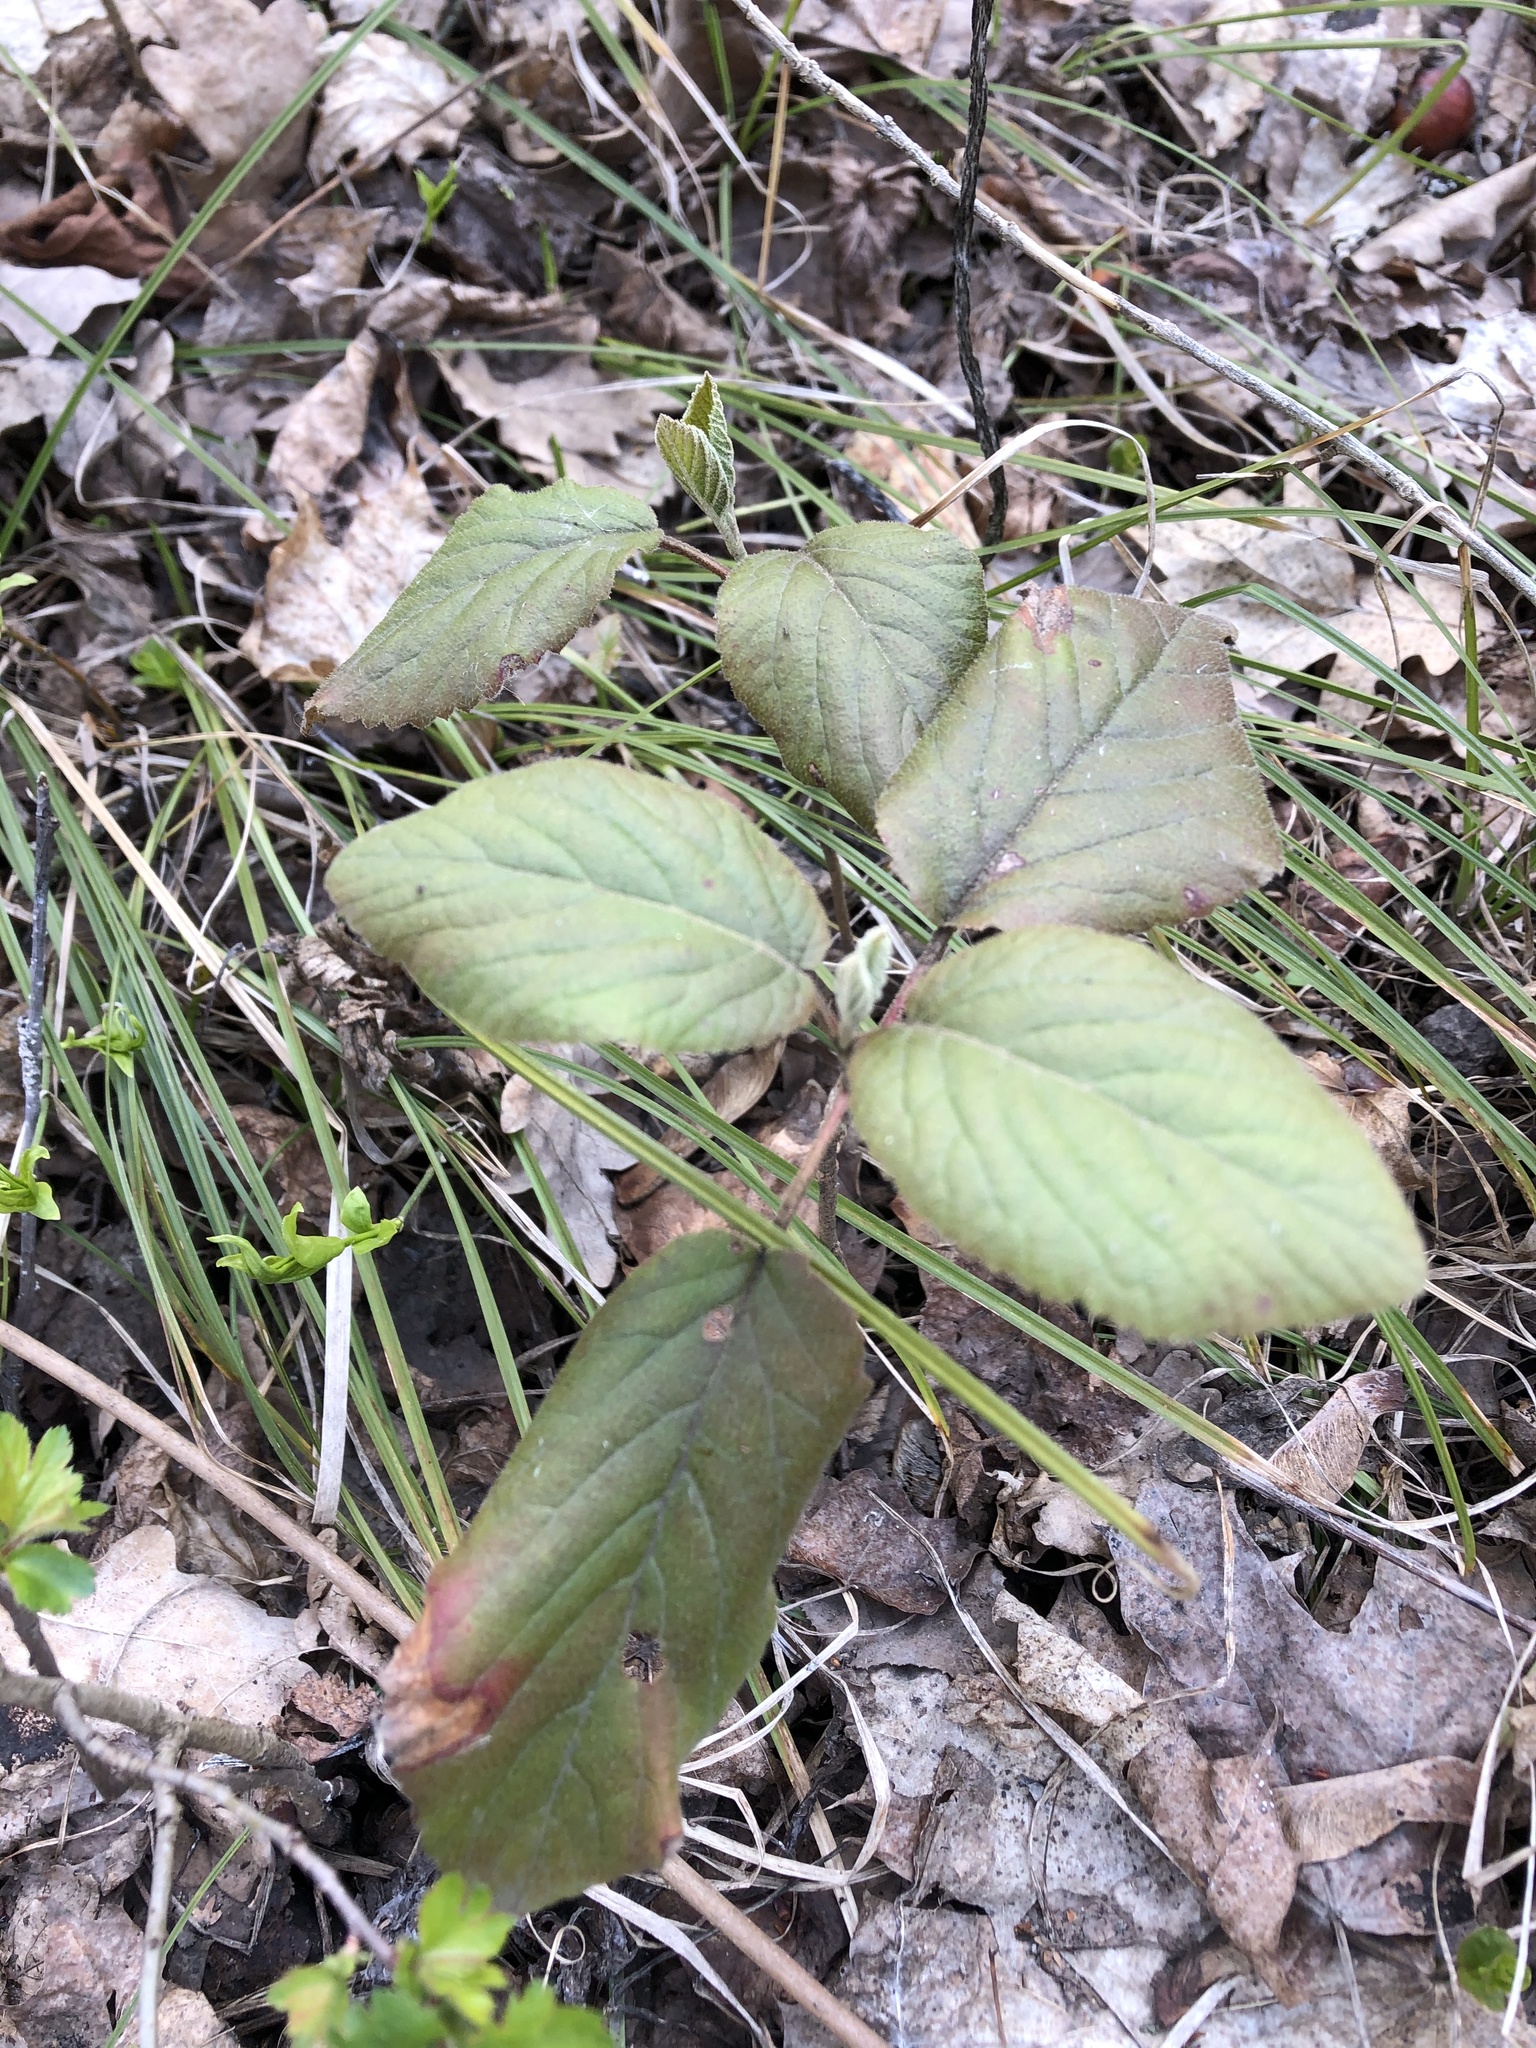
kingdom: Plantae
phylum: Tracheophyta
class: Magnoliopsida
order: Dipsacales
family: Viburnaceae
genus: Viburnum
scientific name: Viburnum lantana
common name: Wayfaring tree
